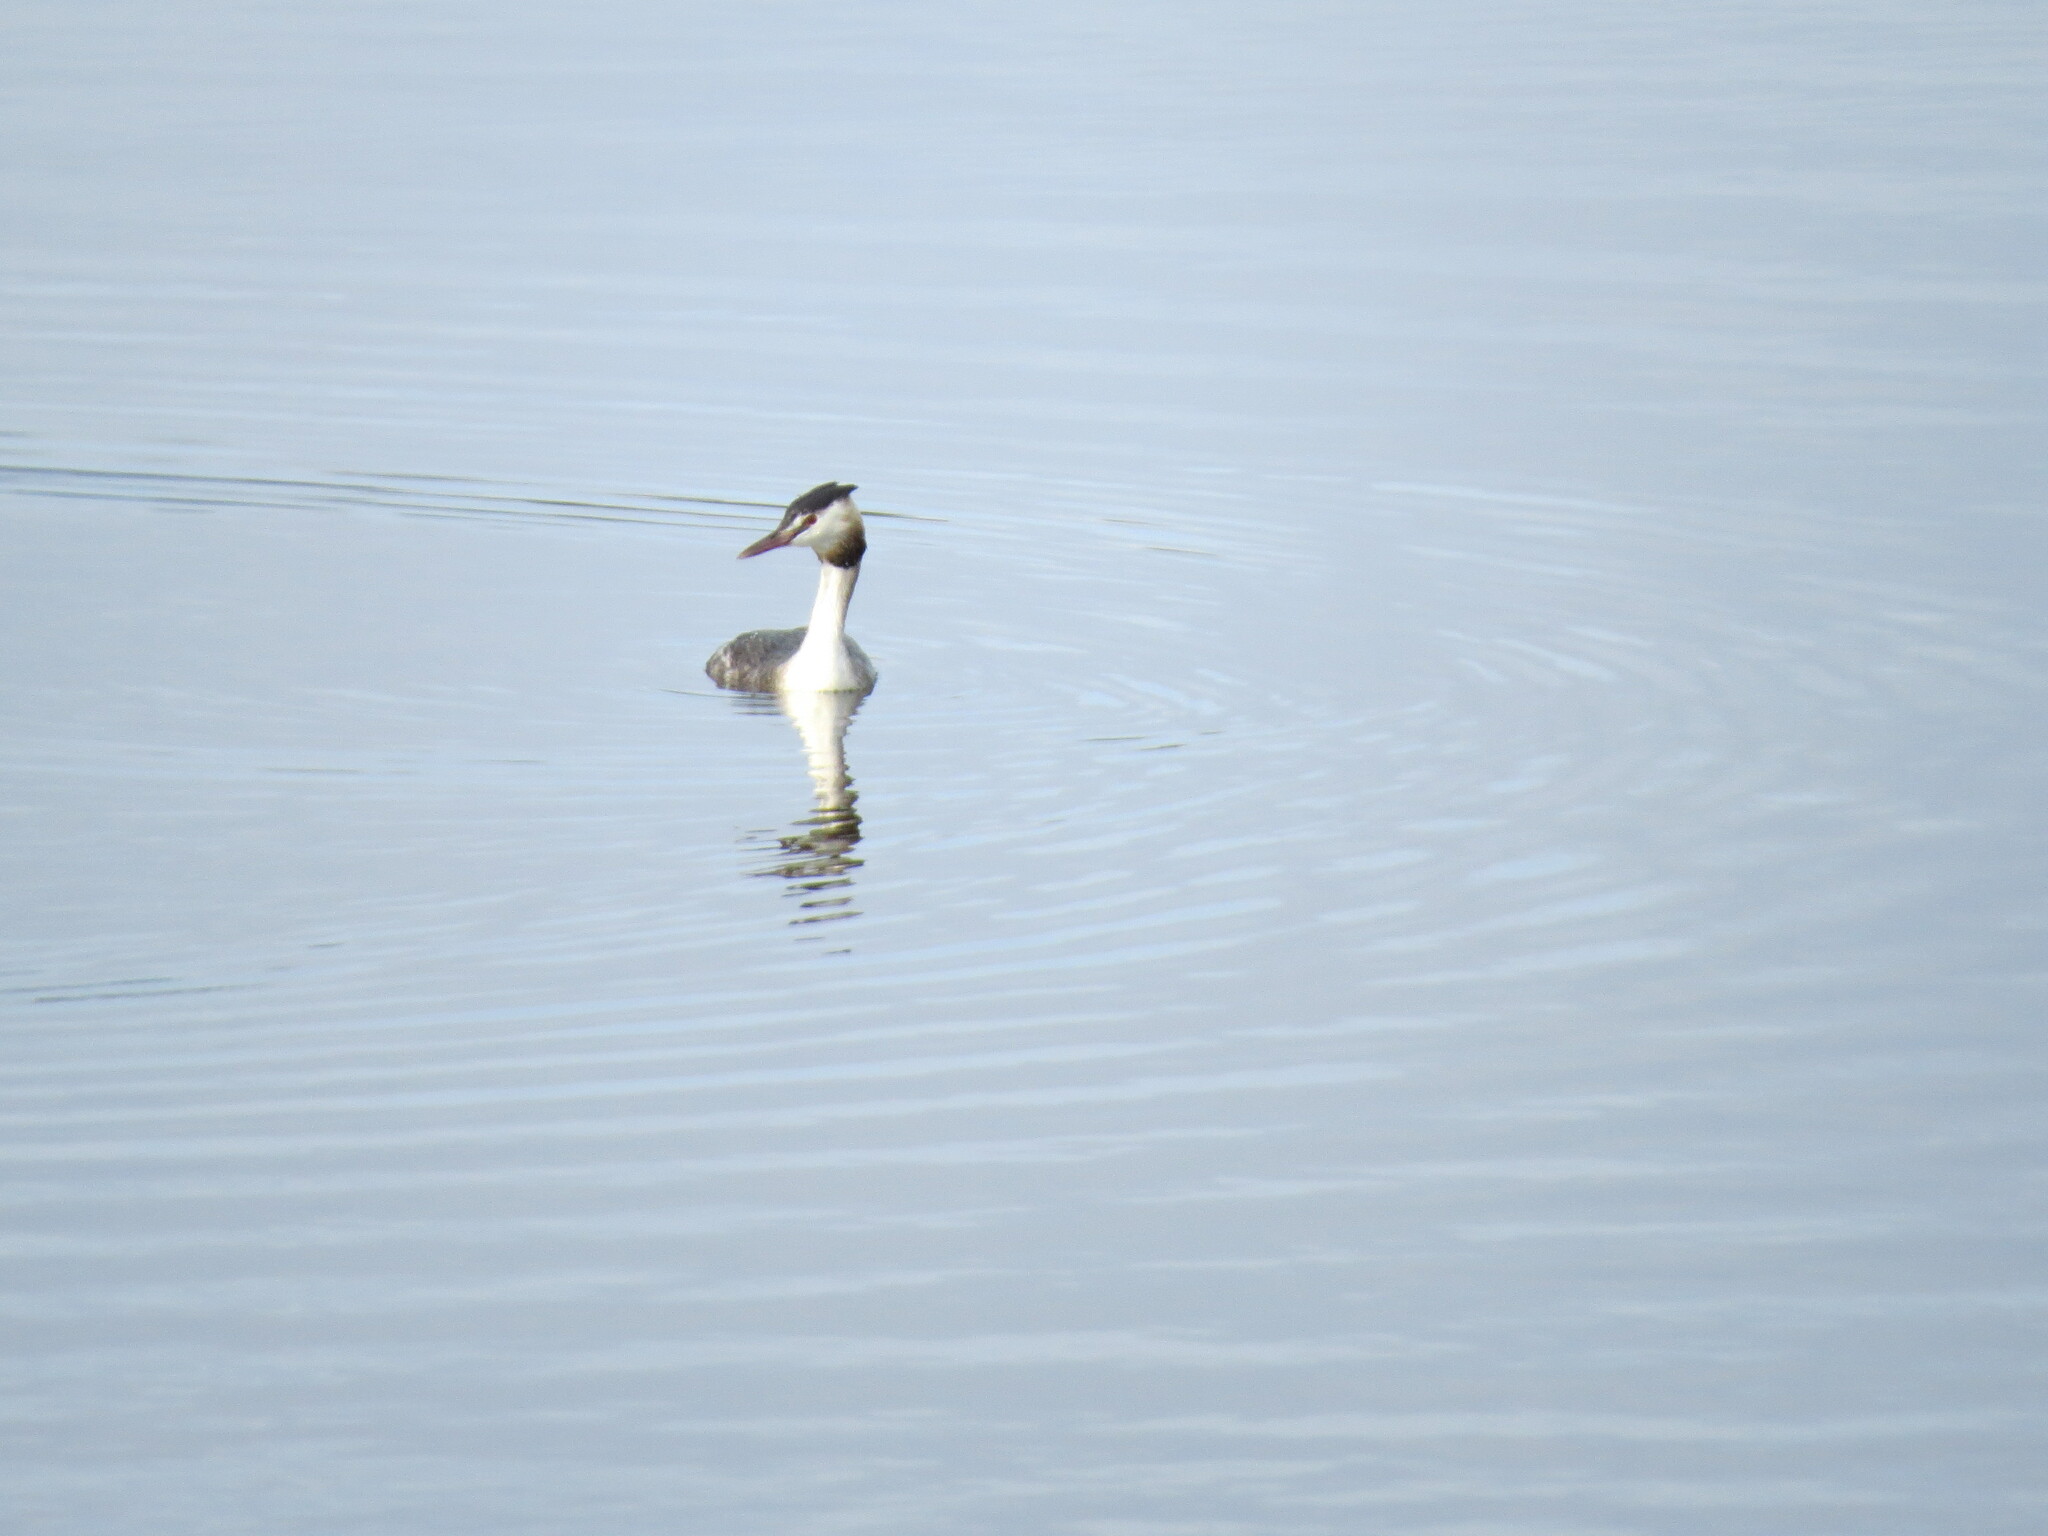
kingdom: Animalia
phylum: Chordata
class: Aves
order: Podicipediformes
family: Podicipedidae
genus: Podiceps
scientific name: Podiceps cristatus
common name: Great crested grebe
